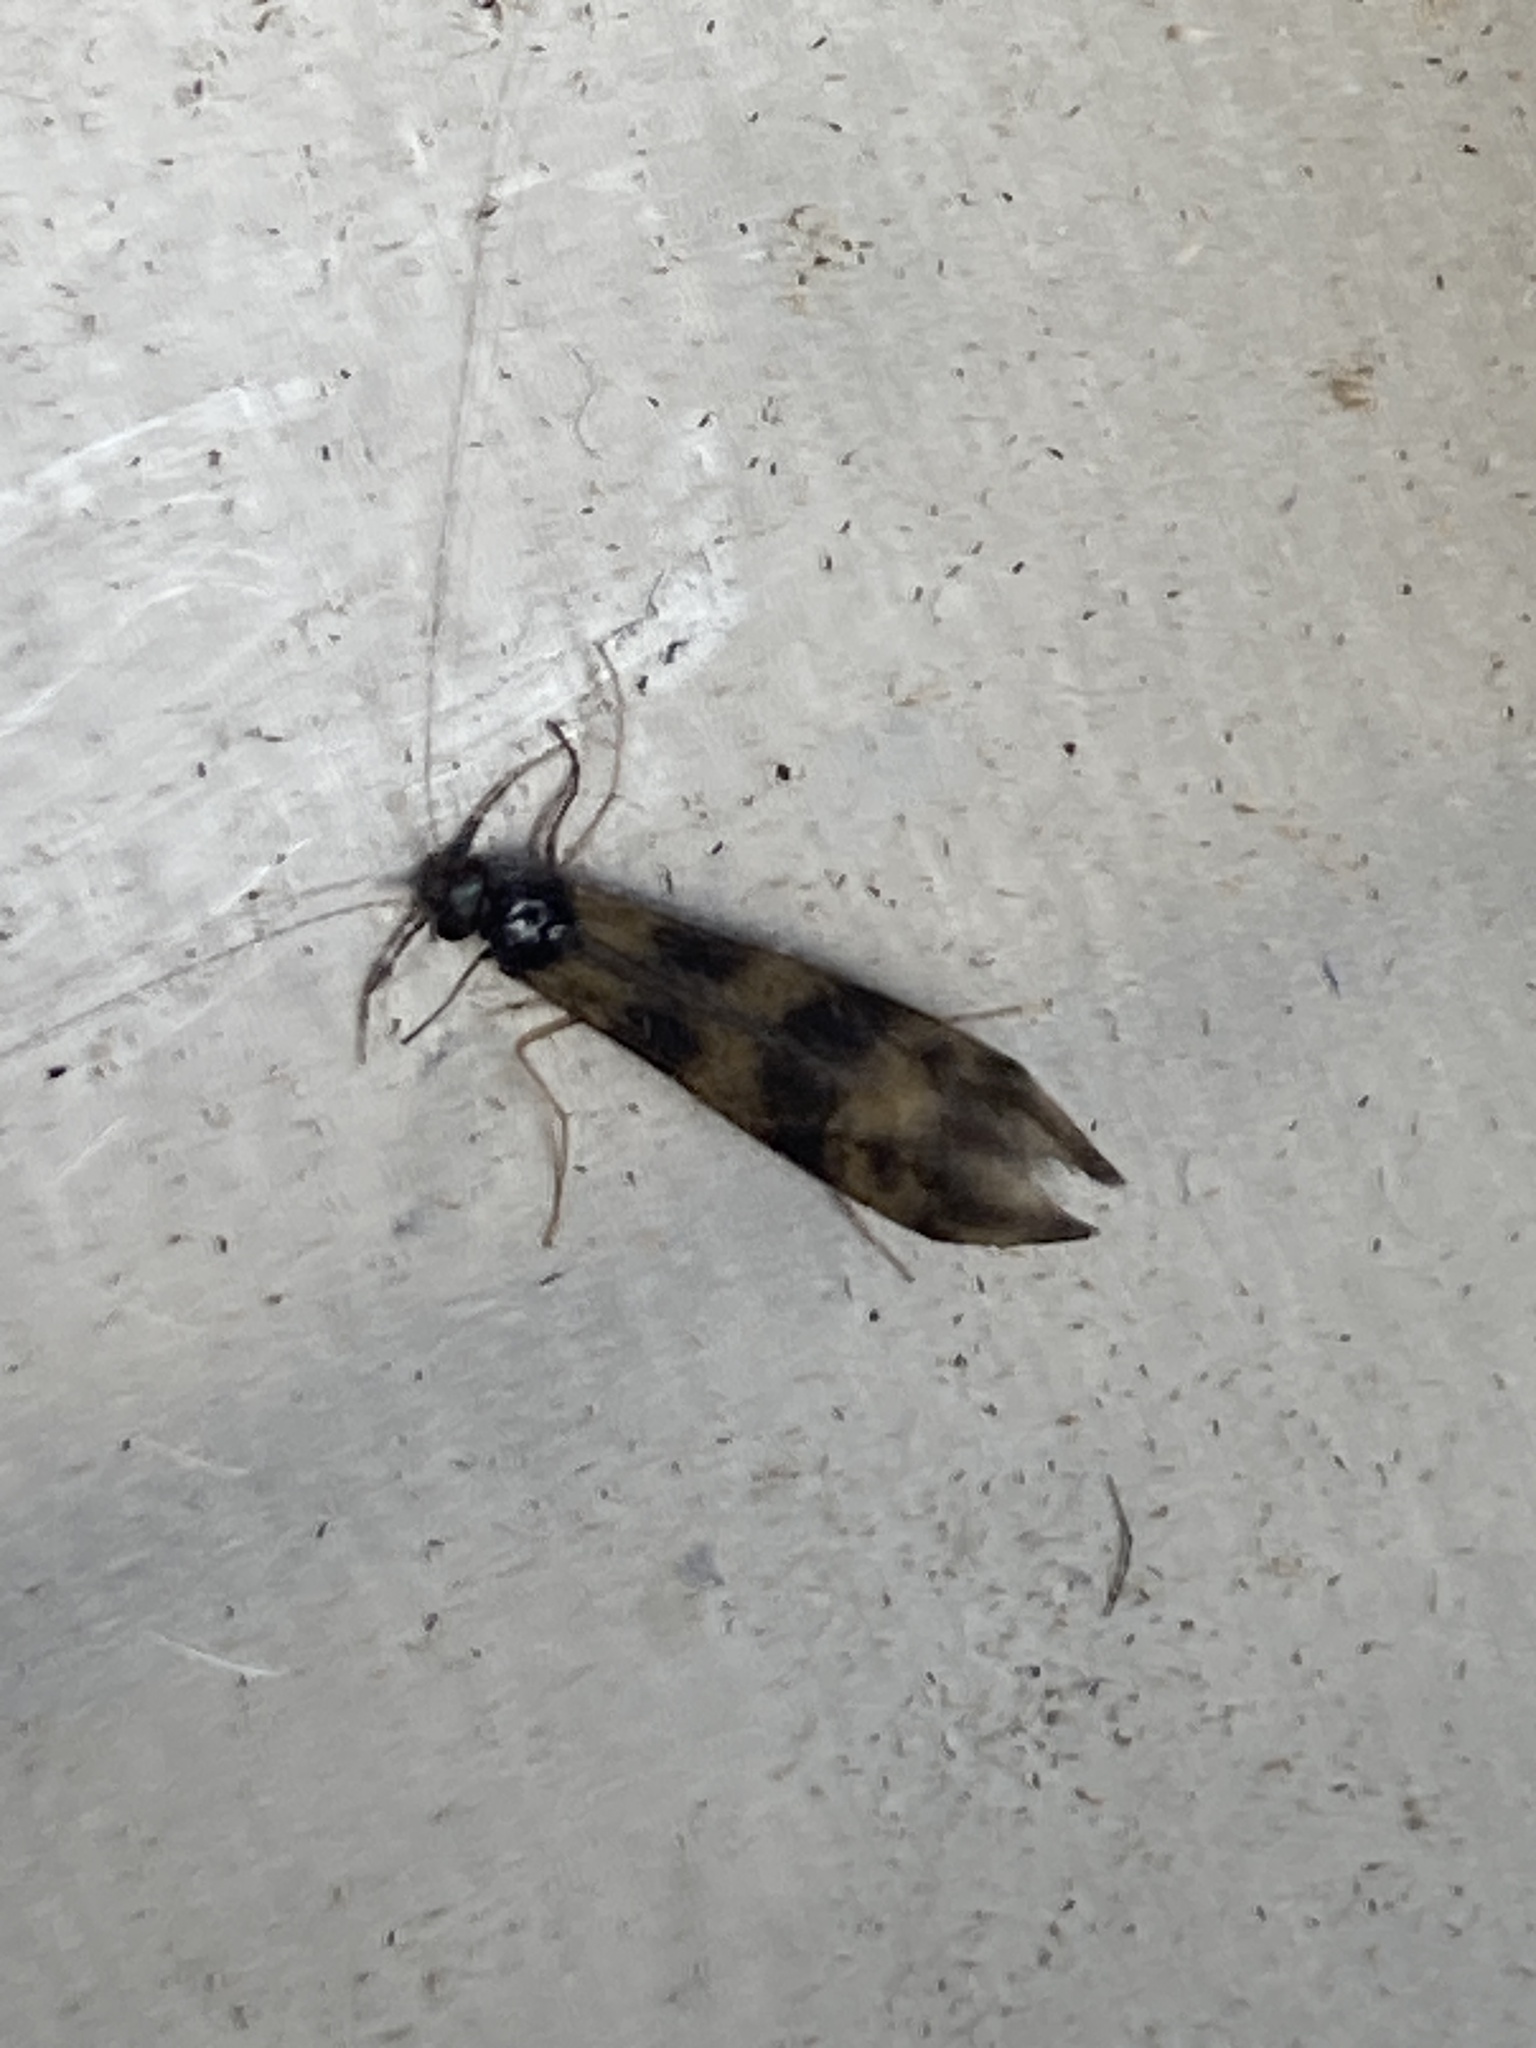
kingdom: Animalia
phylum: Arthropoda
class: Insecta
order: Trichoptera
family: Leptoceridae
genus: Mystacides
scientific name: Mystacides longicornis
